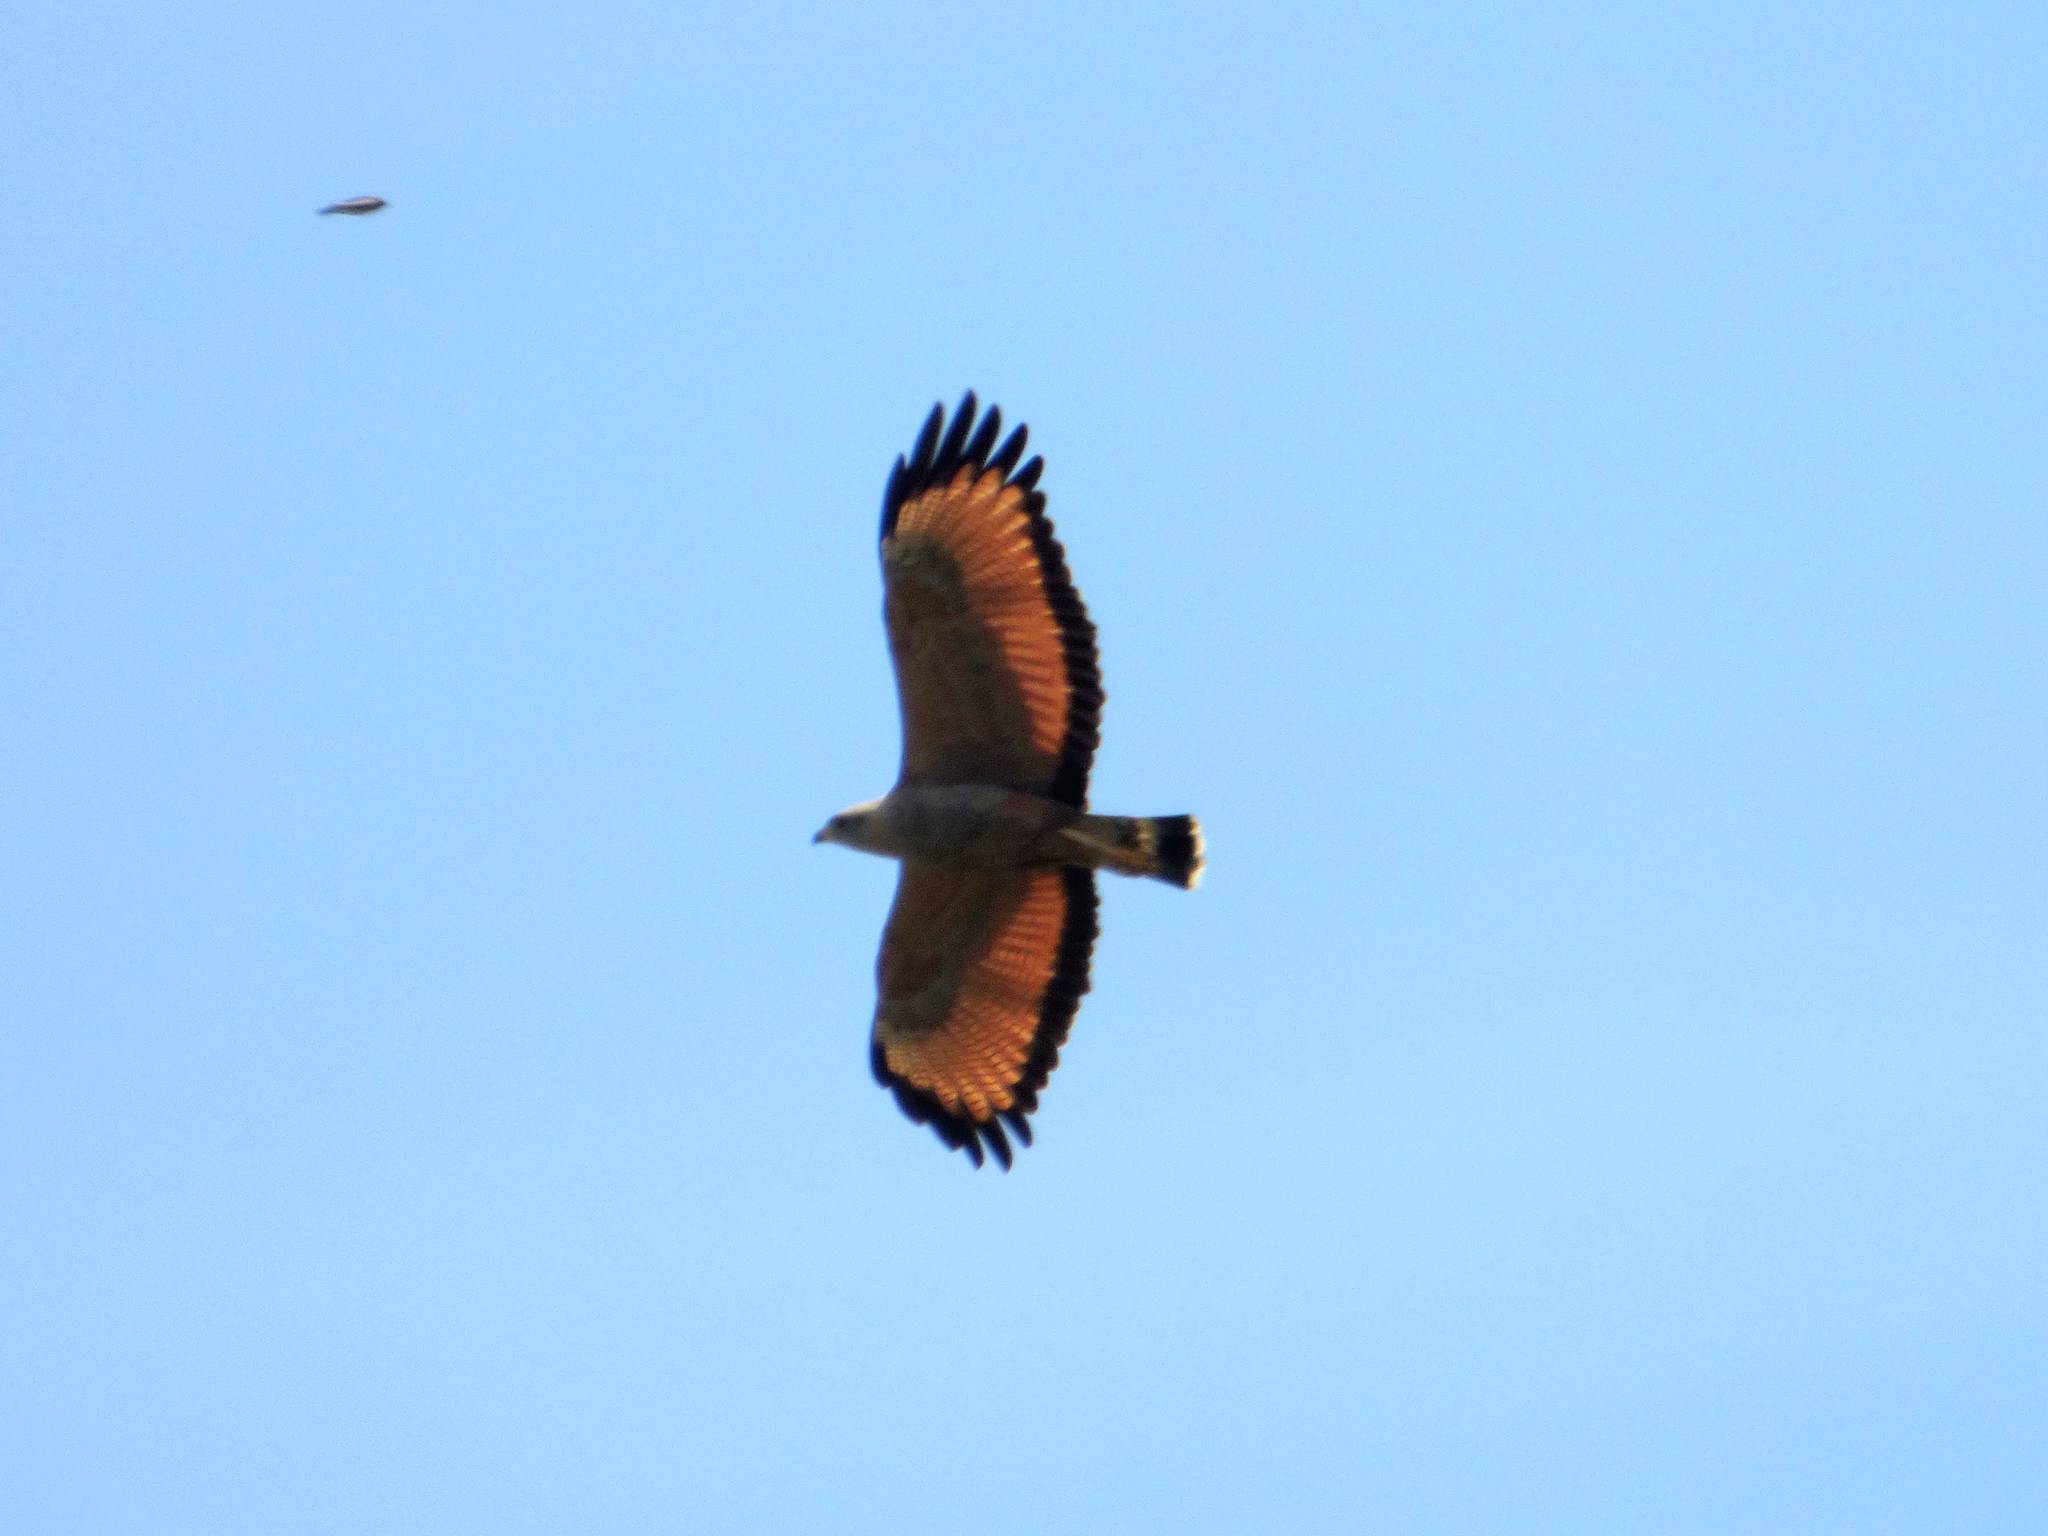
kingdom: Animalia
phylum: Chordata
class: Aves
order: Accipitriformes
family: Accipitridae
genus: Buteogallus
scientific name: Buteogallus meridionalis
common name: Savanna hawk
